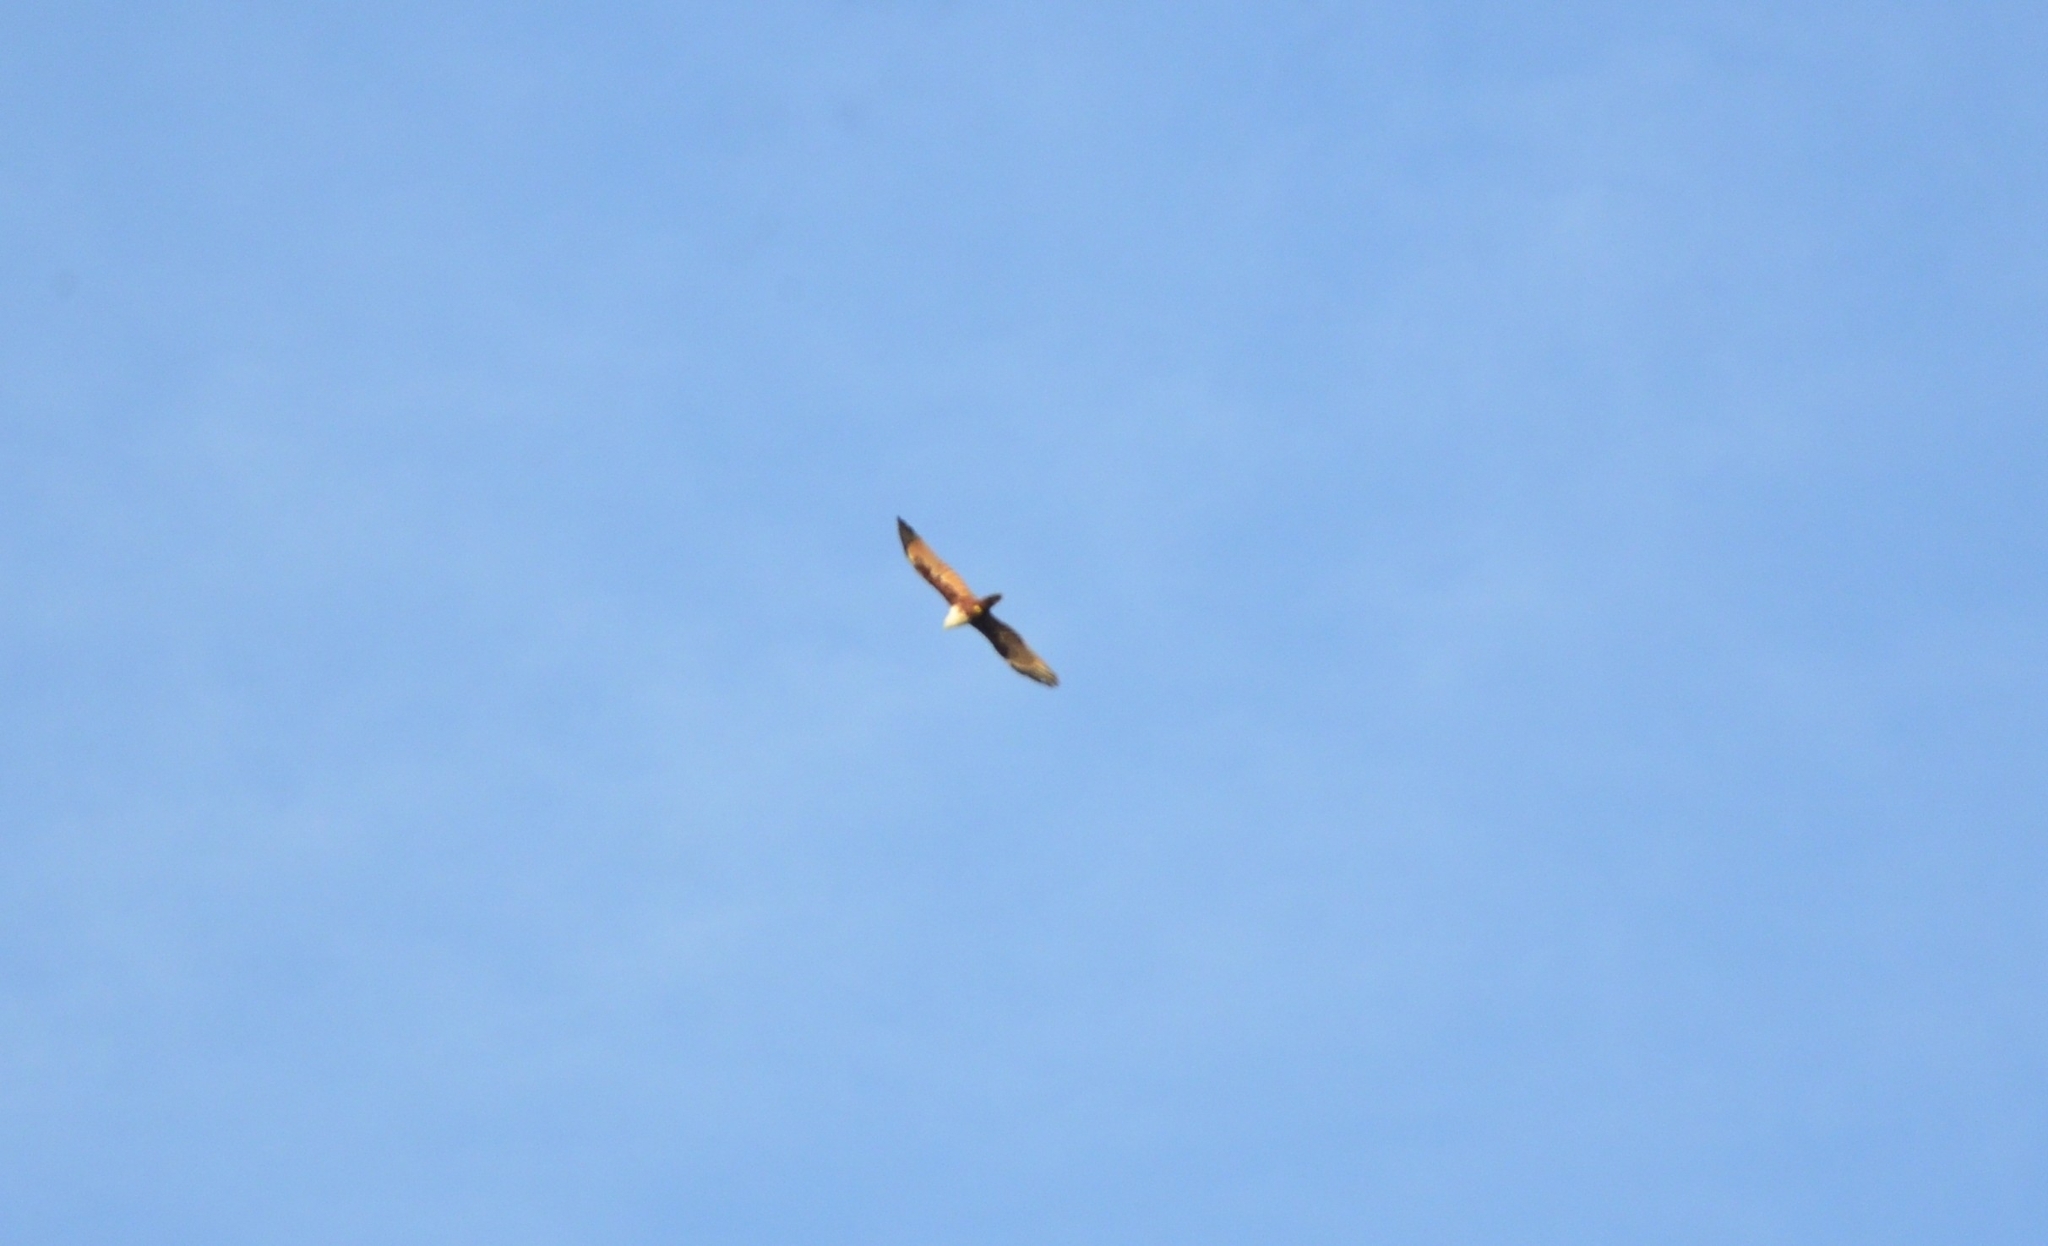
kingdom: Animalia
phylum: Chordata
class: Aves
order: Accipitriformes
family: Accipitridae
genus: Haliastur
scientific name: Haliastur indus
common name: Brahminy kite
